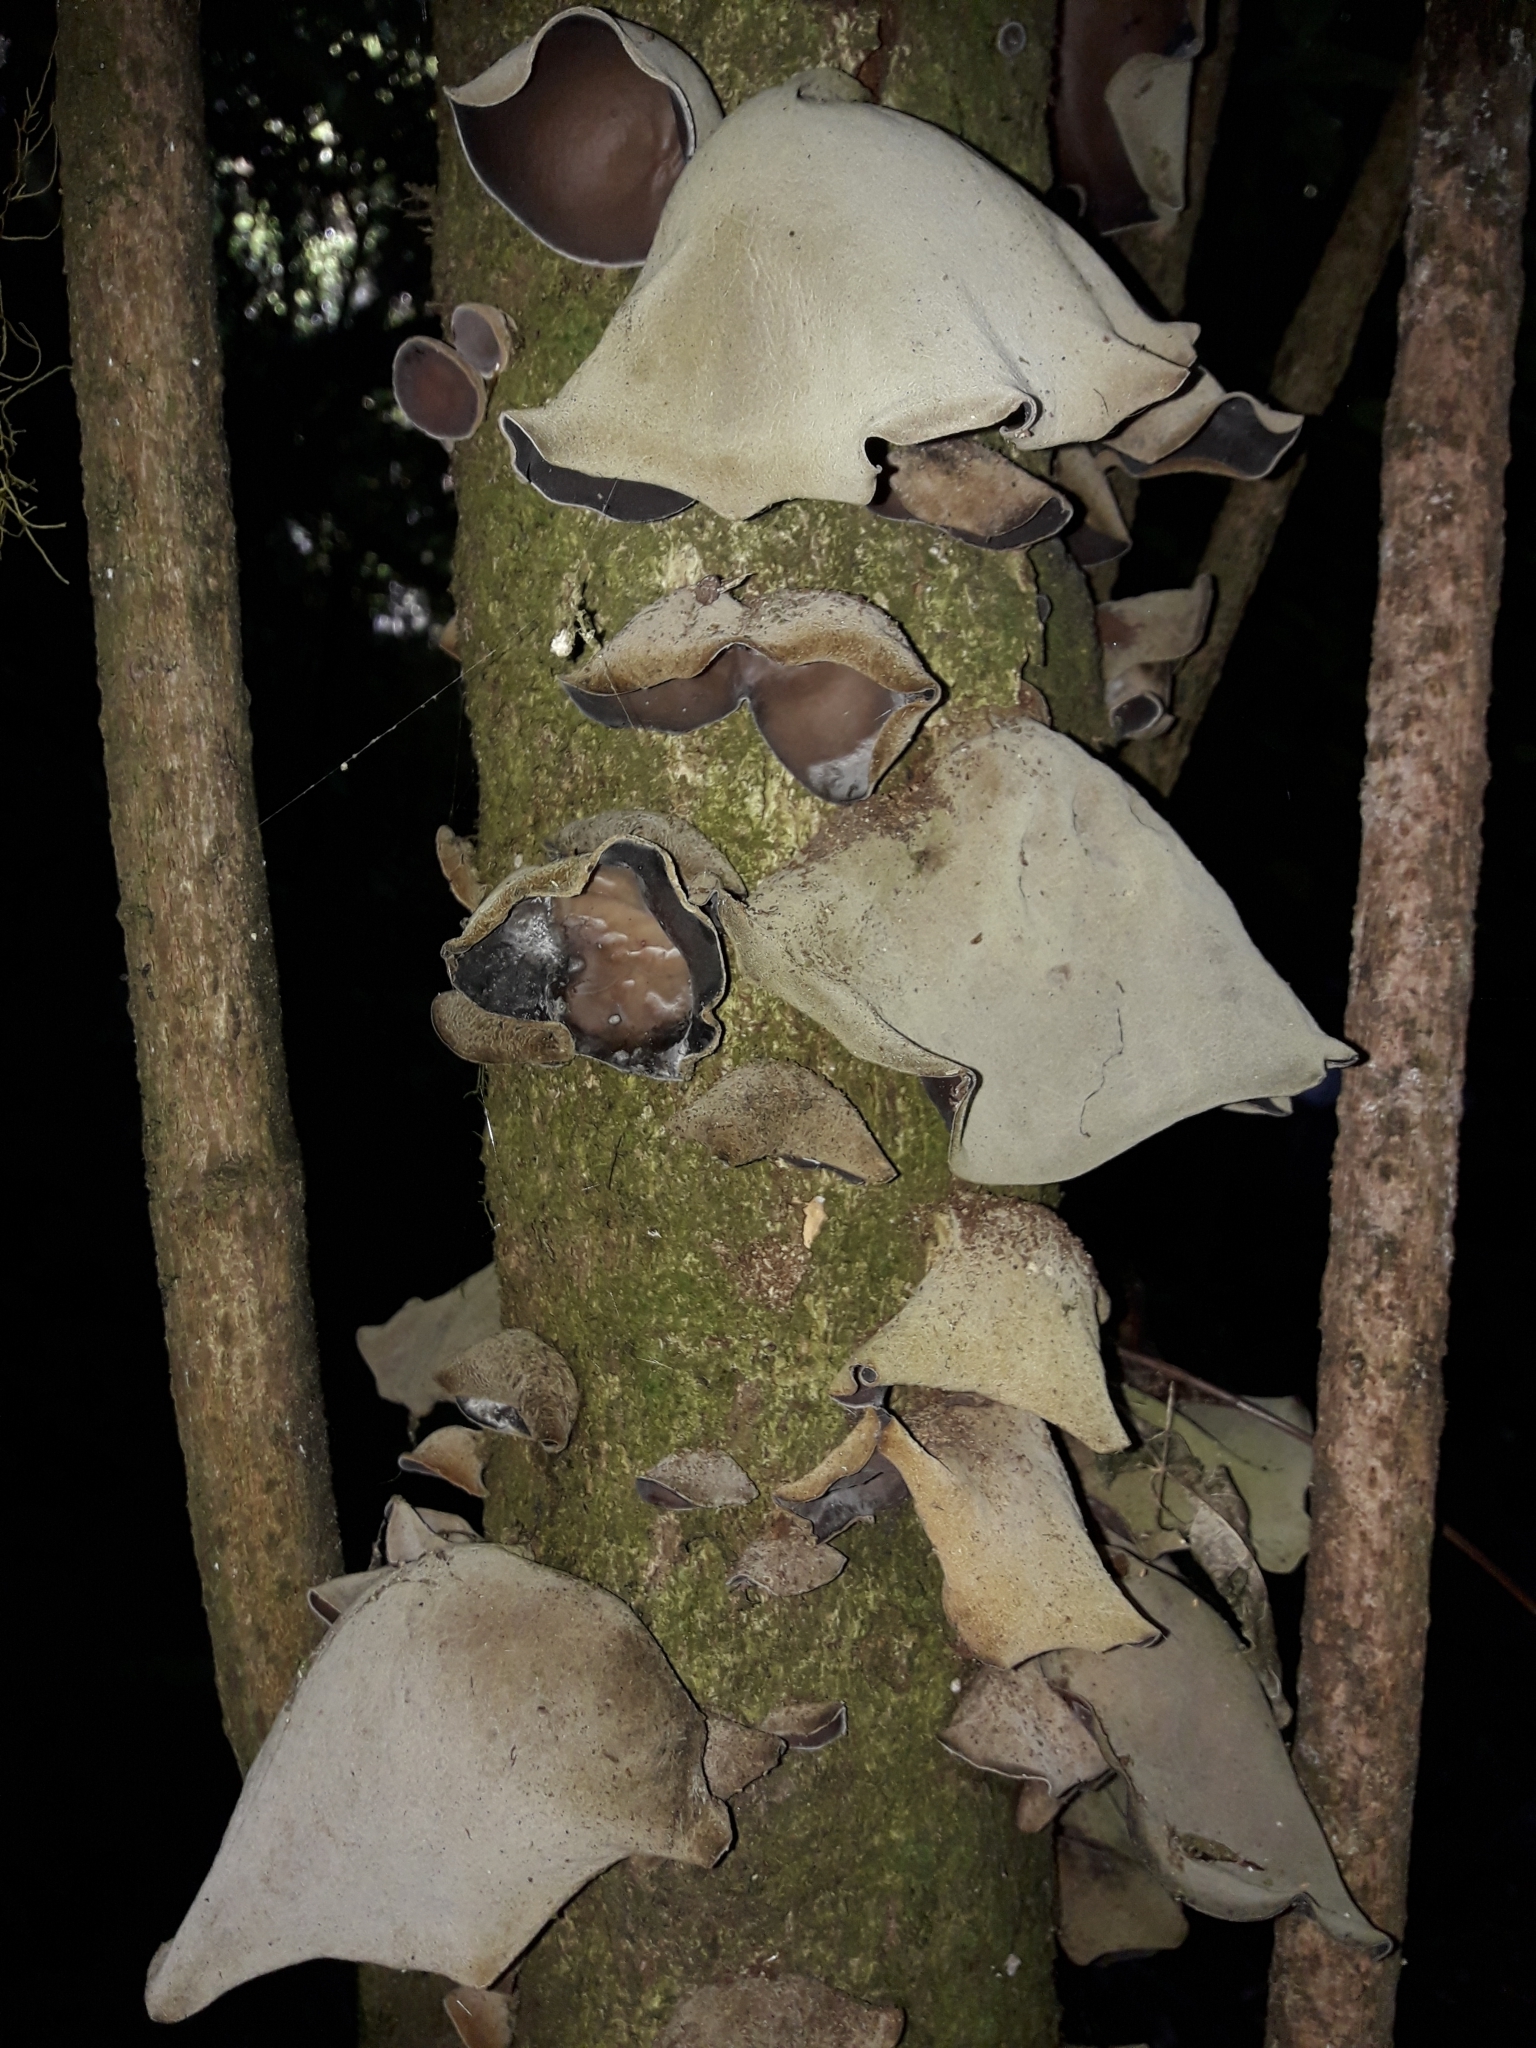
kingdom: Fungi
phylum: Basidiomycota
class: Agaricomycetes
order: Auriculariales
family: Auriculariaceae
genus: Auricularia
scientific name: Auricularia cornea
